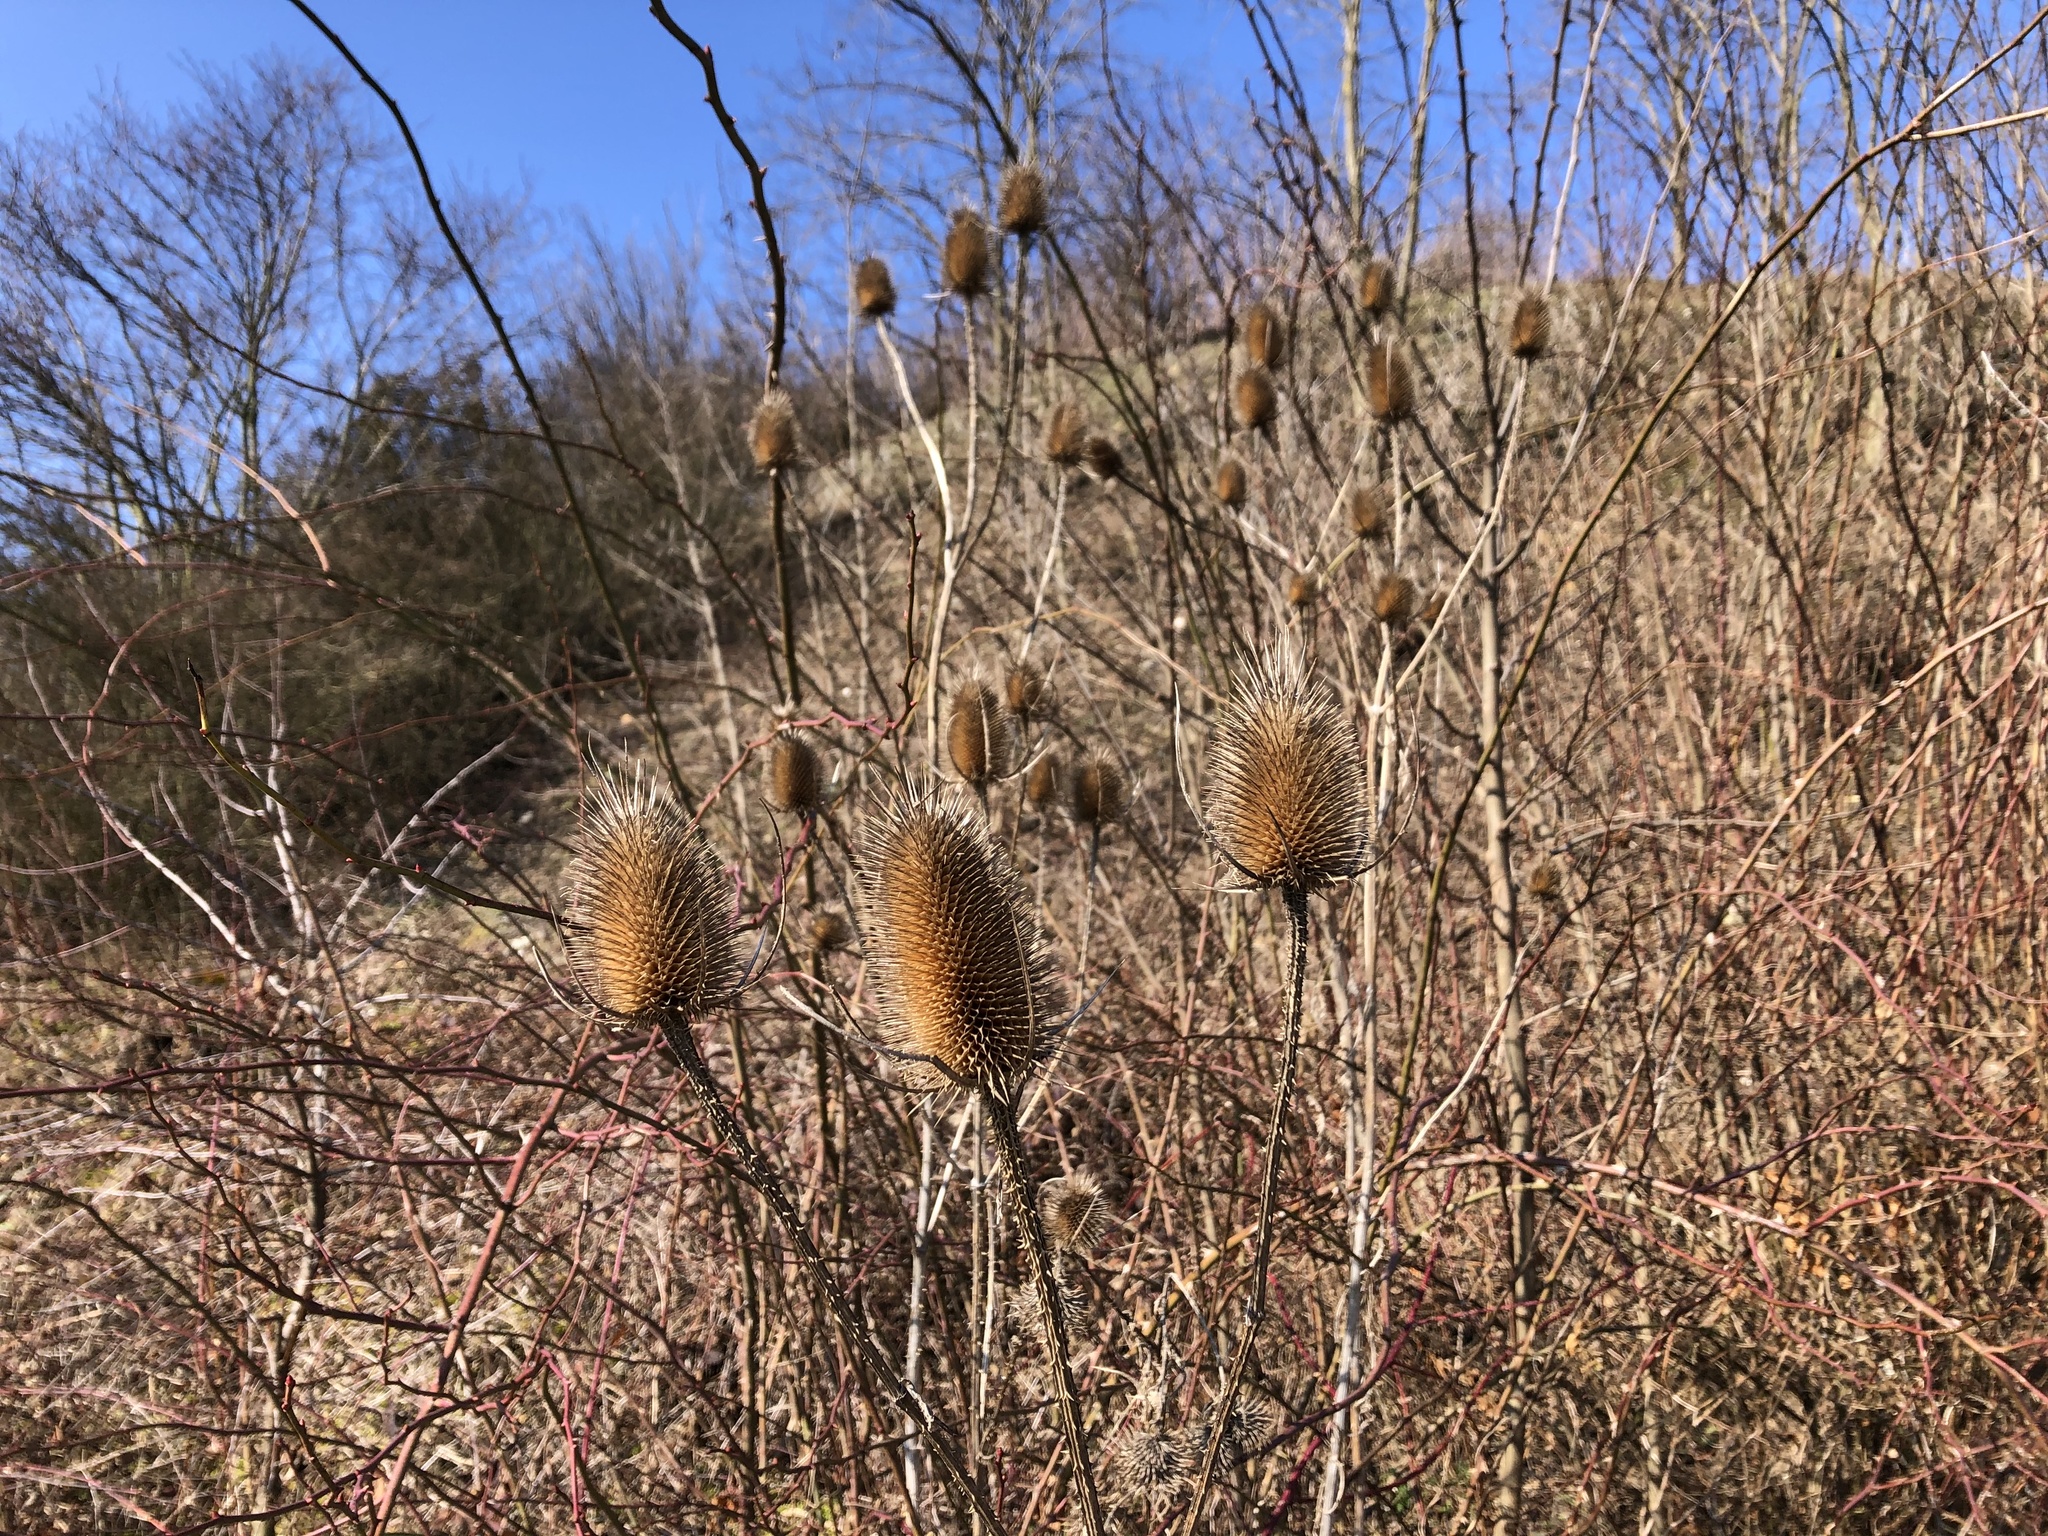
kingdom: Plantae
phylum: Tracheophyta
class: Magnoliopsida
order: Dipsacales
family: Caprifoliaceae
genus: Dipsacus
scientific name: Dipsacus fullonum
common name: Teasel
